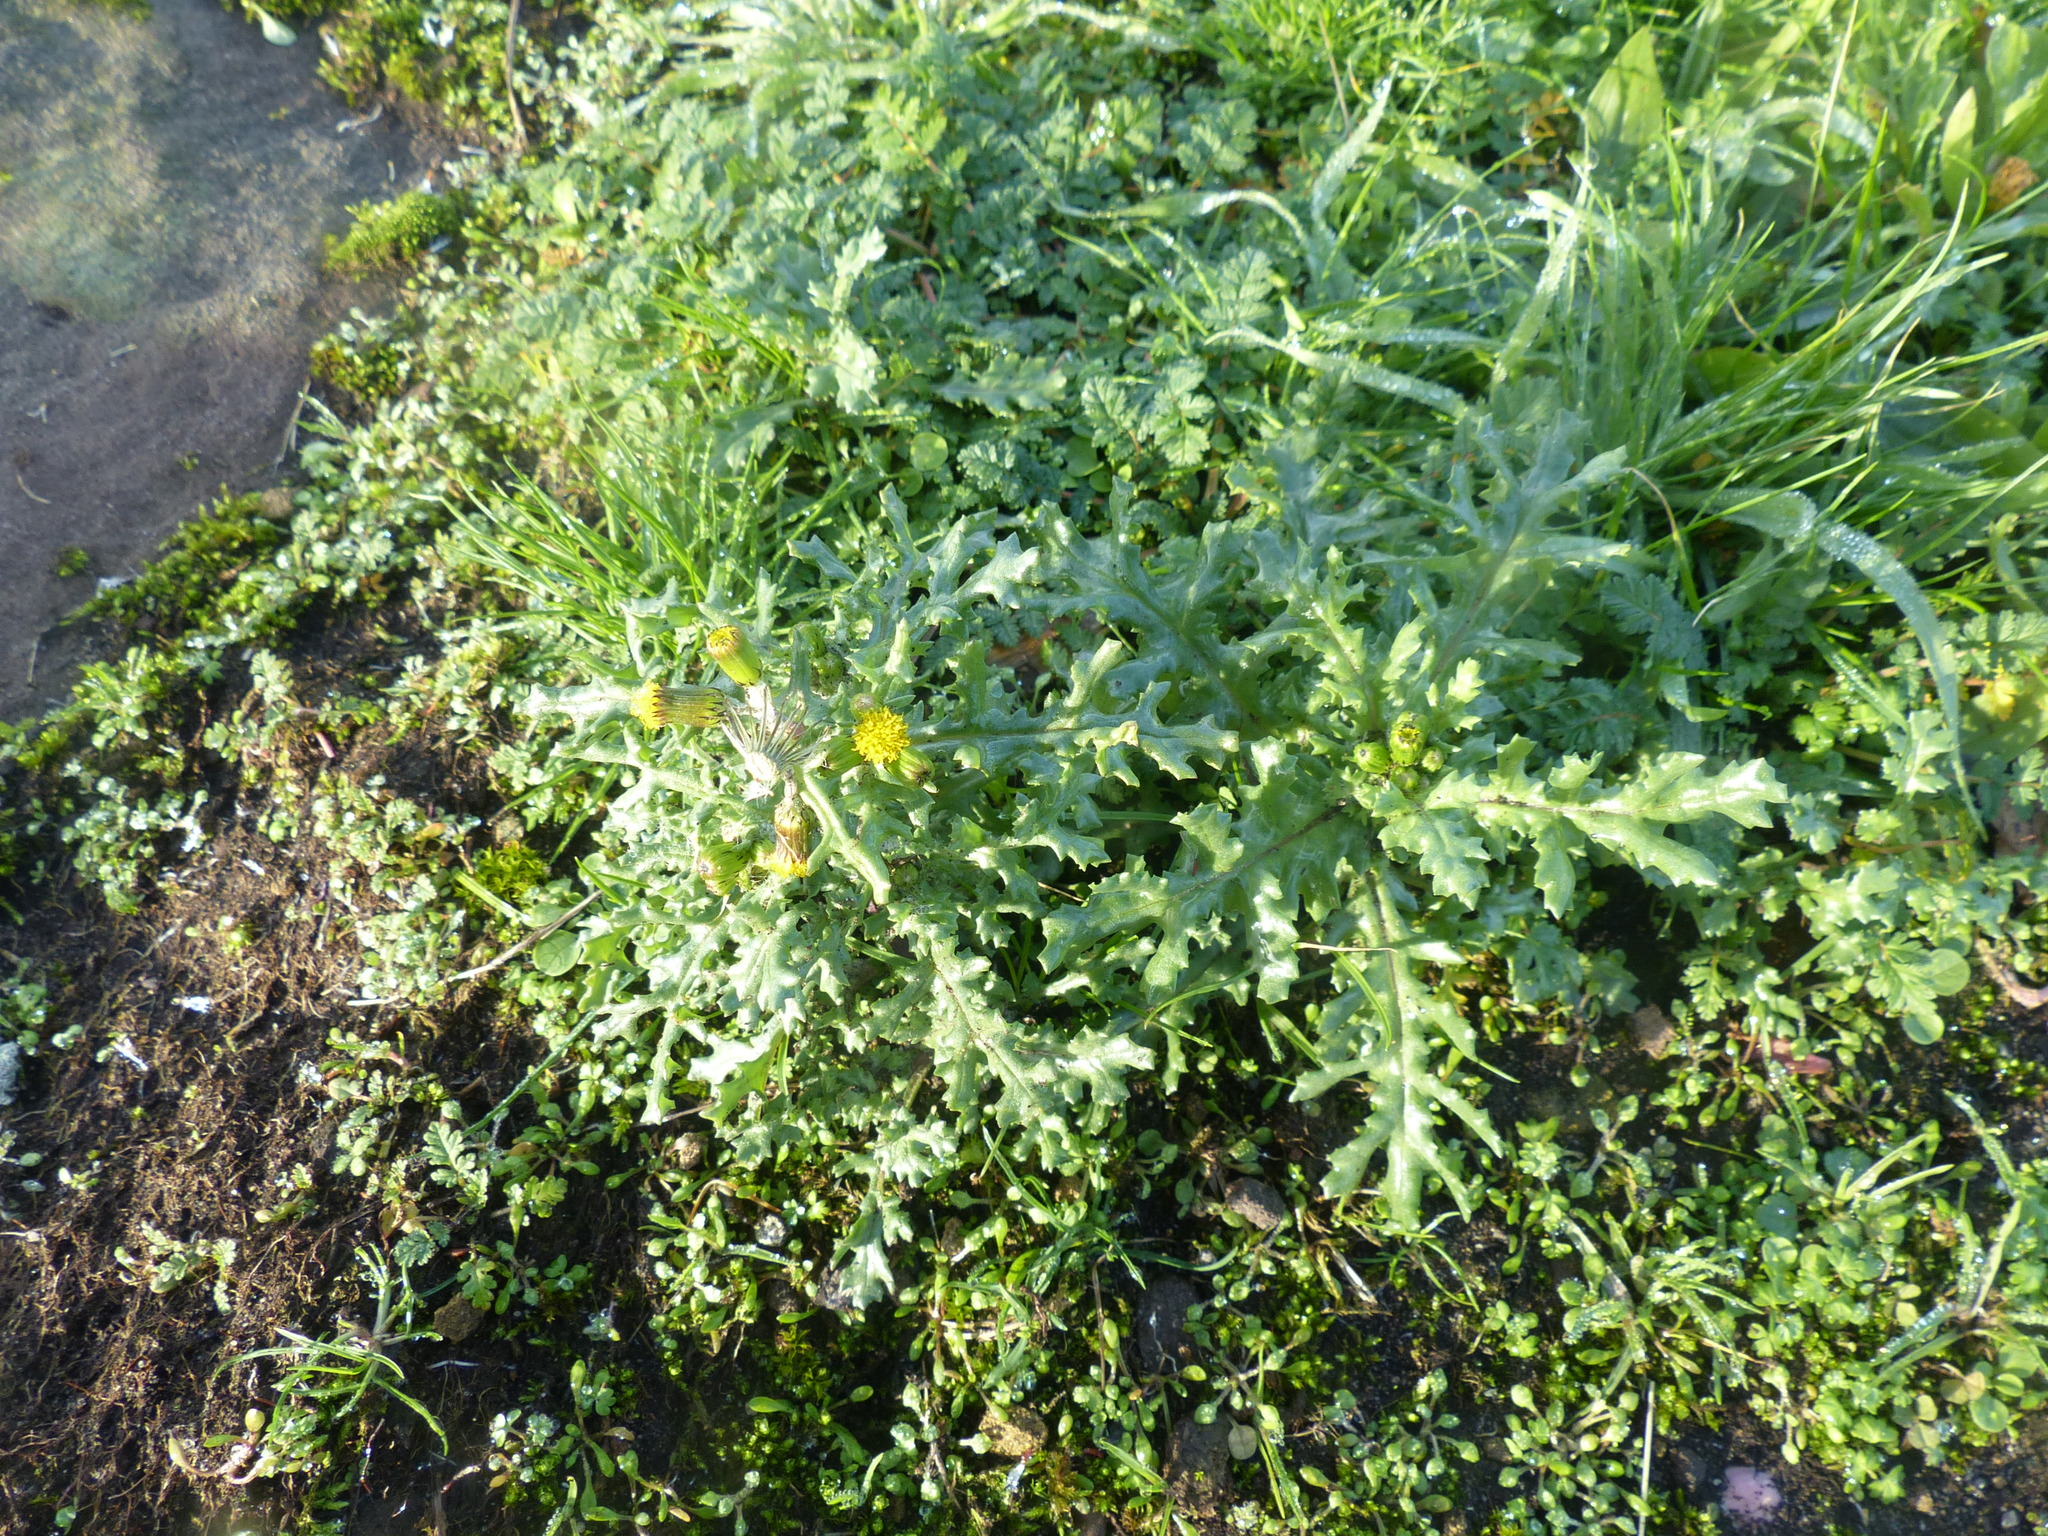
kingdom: Plantae
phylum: Tracheophyta
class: Magnoliopsida
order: Asterales
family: Asteraceae
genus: Senecio
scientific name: Senecio vulgaris
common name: Old-man-in-the-spring
